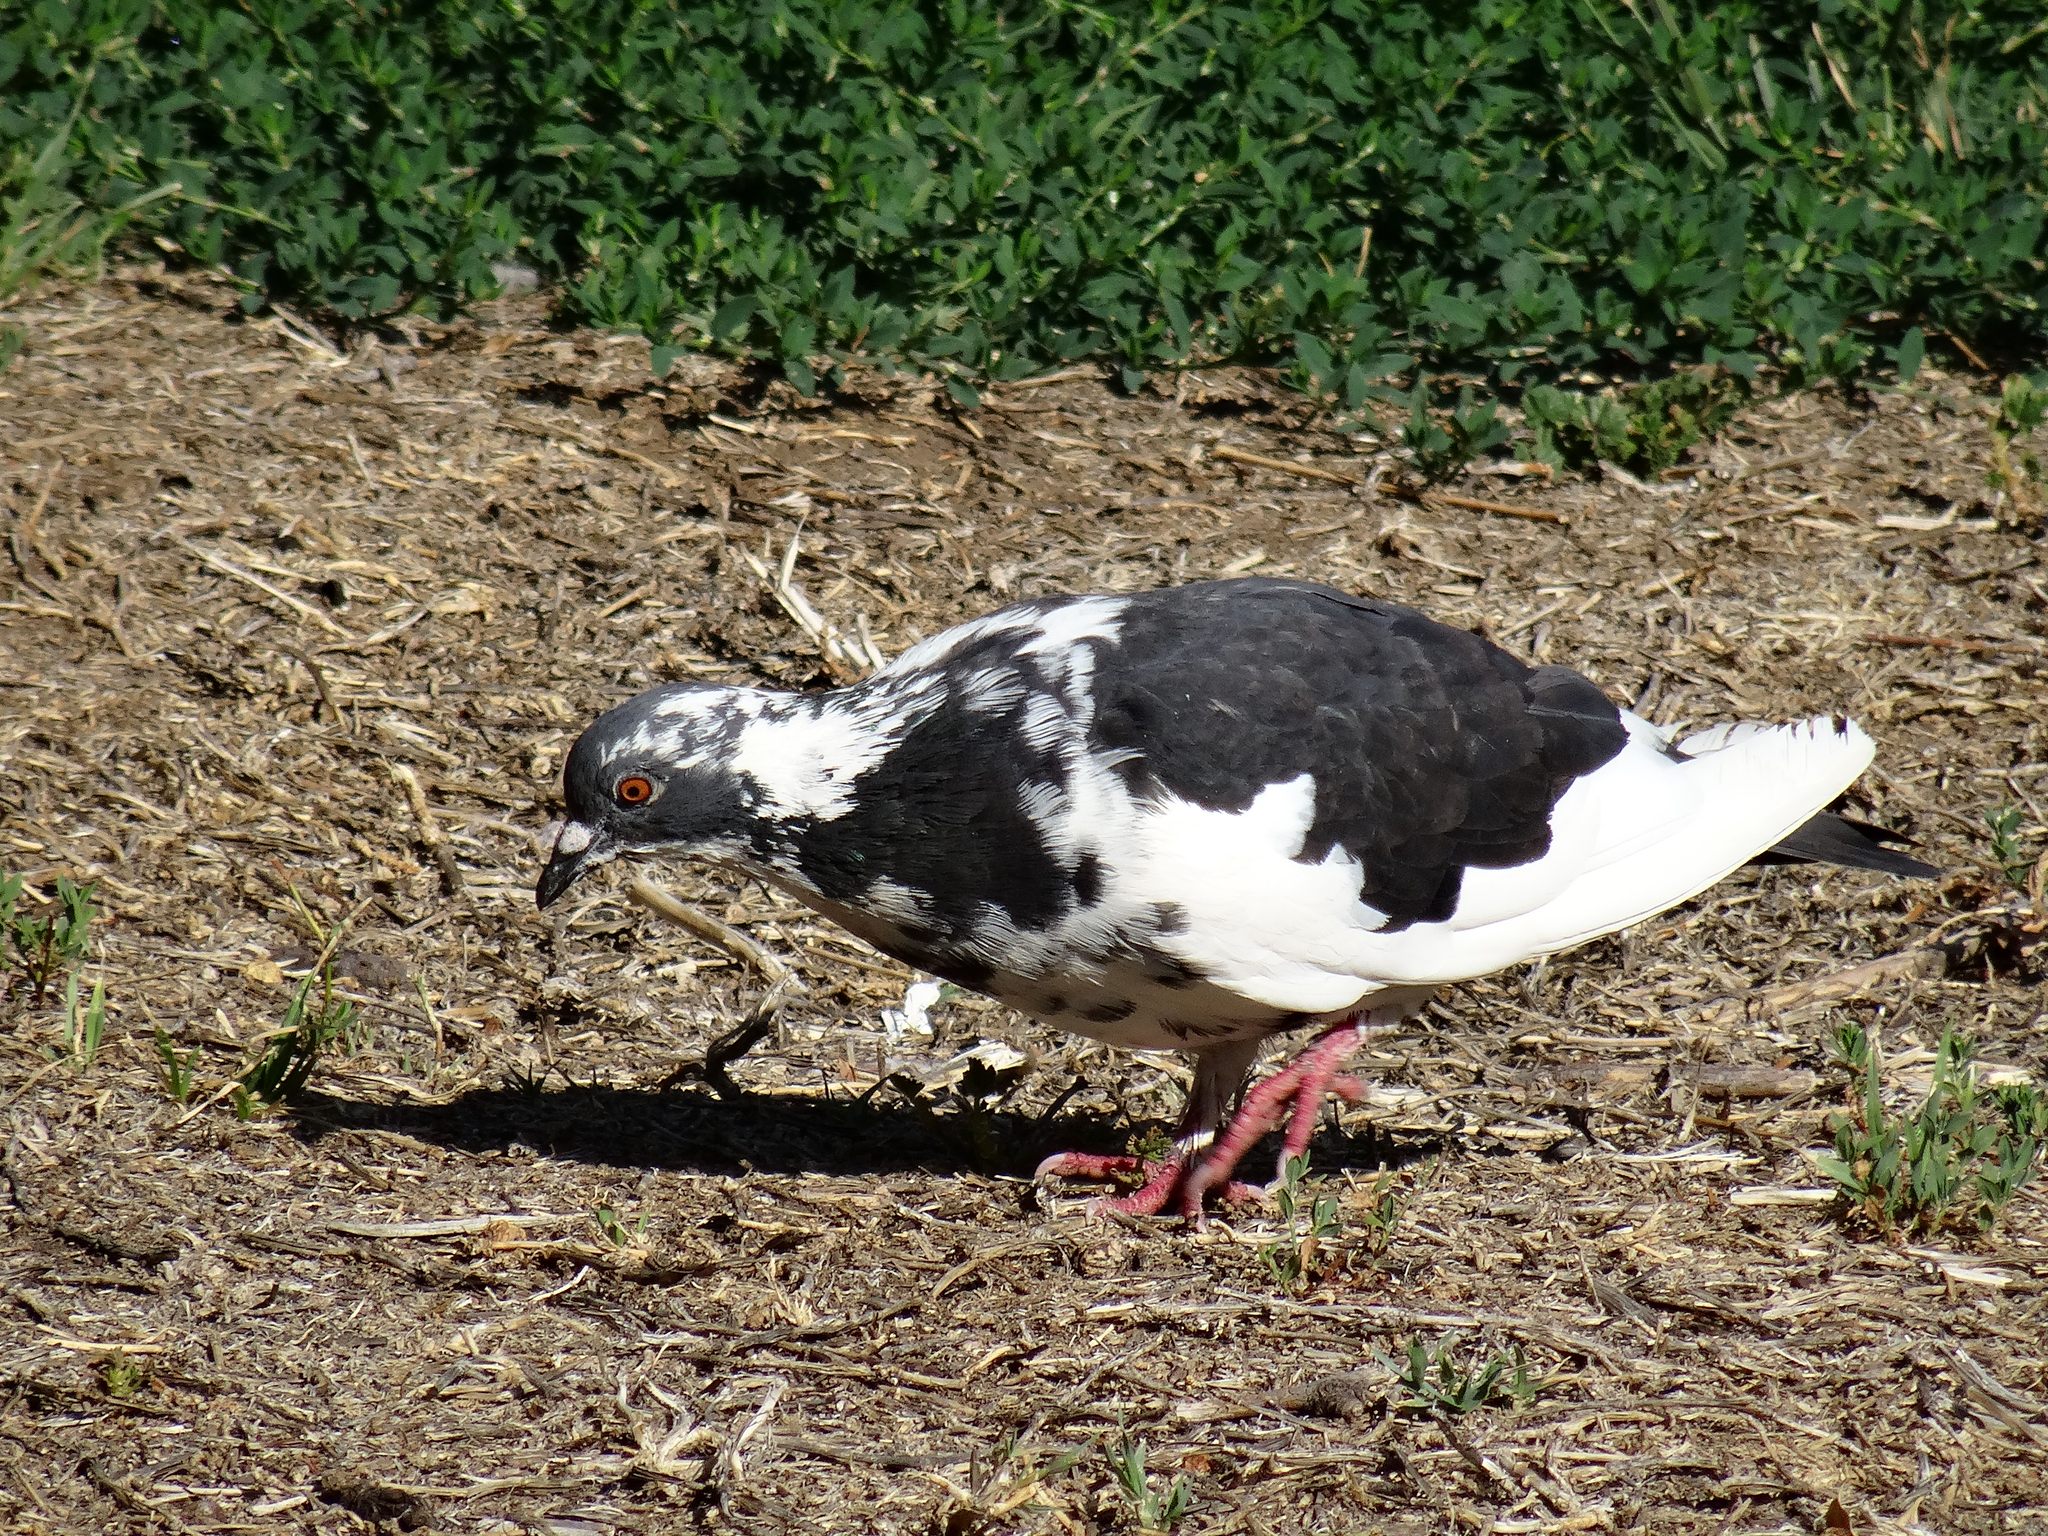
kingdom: Animalia
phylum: Chordata
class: Aves
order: Columbiformes
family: Columbidae
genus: Columba
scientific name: Columba livia
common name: Rock pigeon
